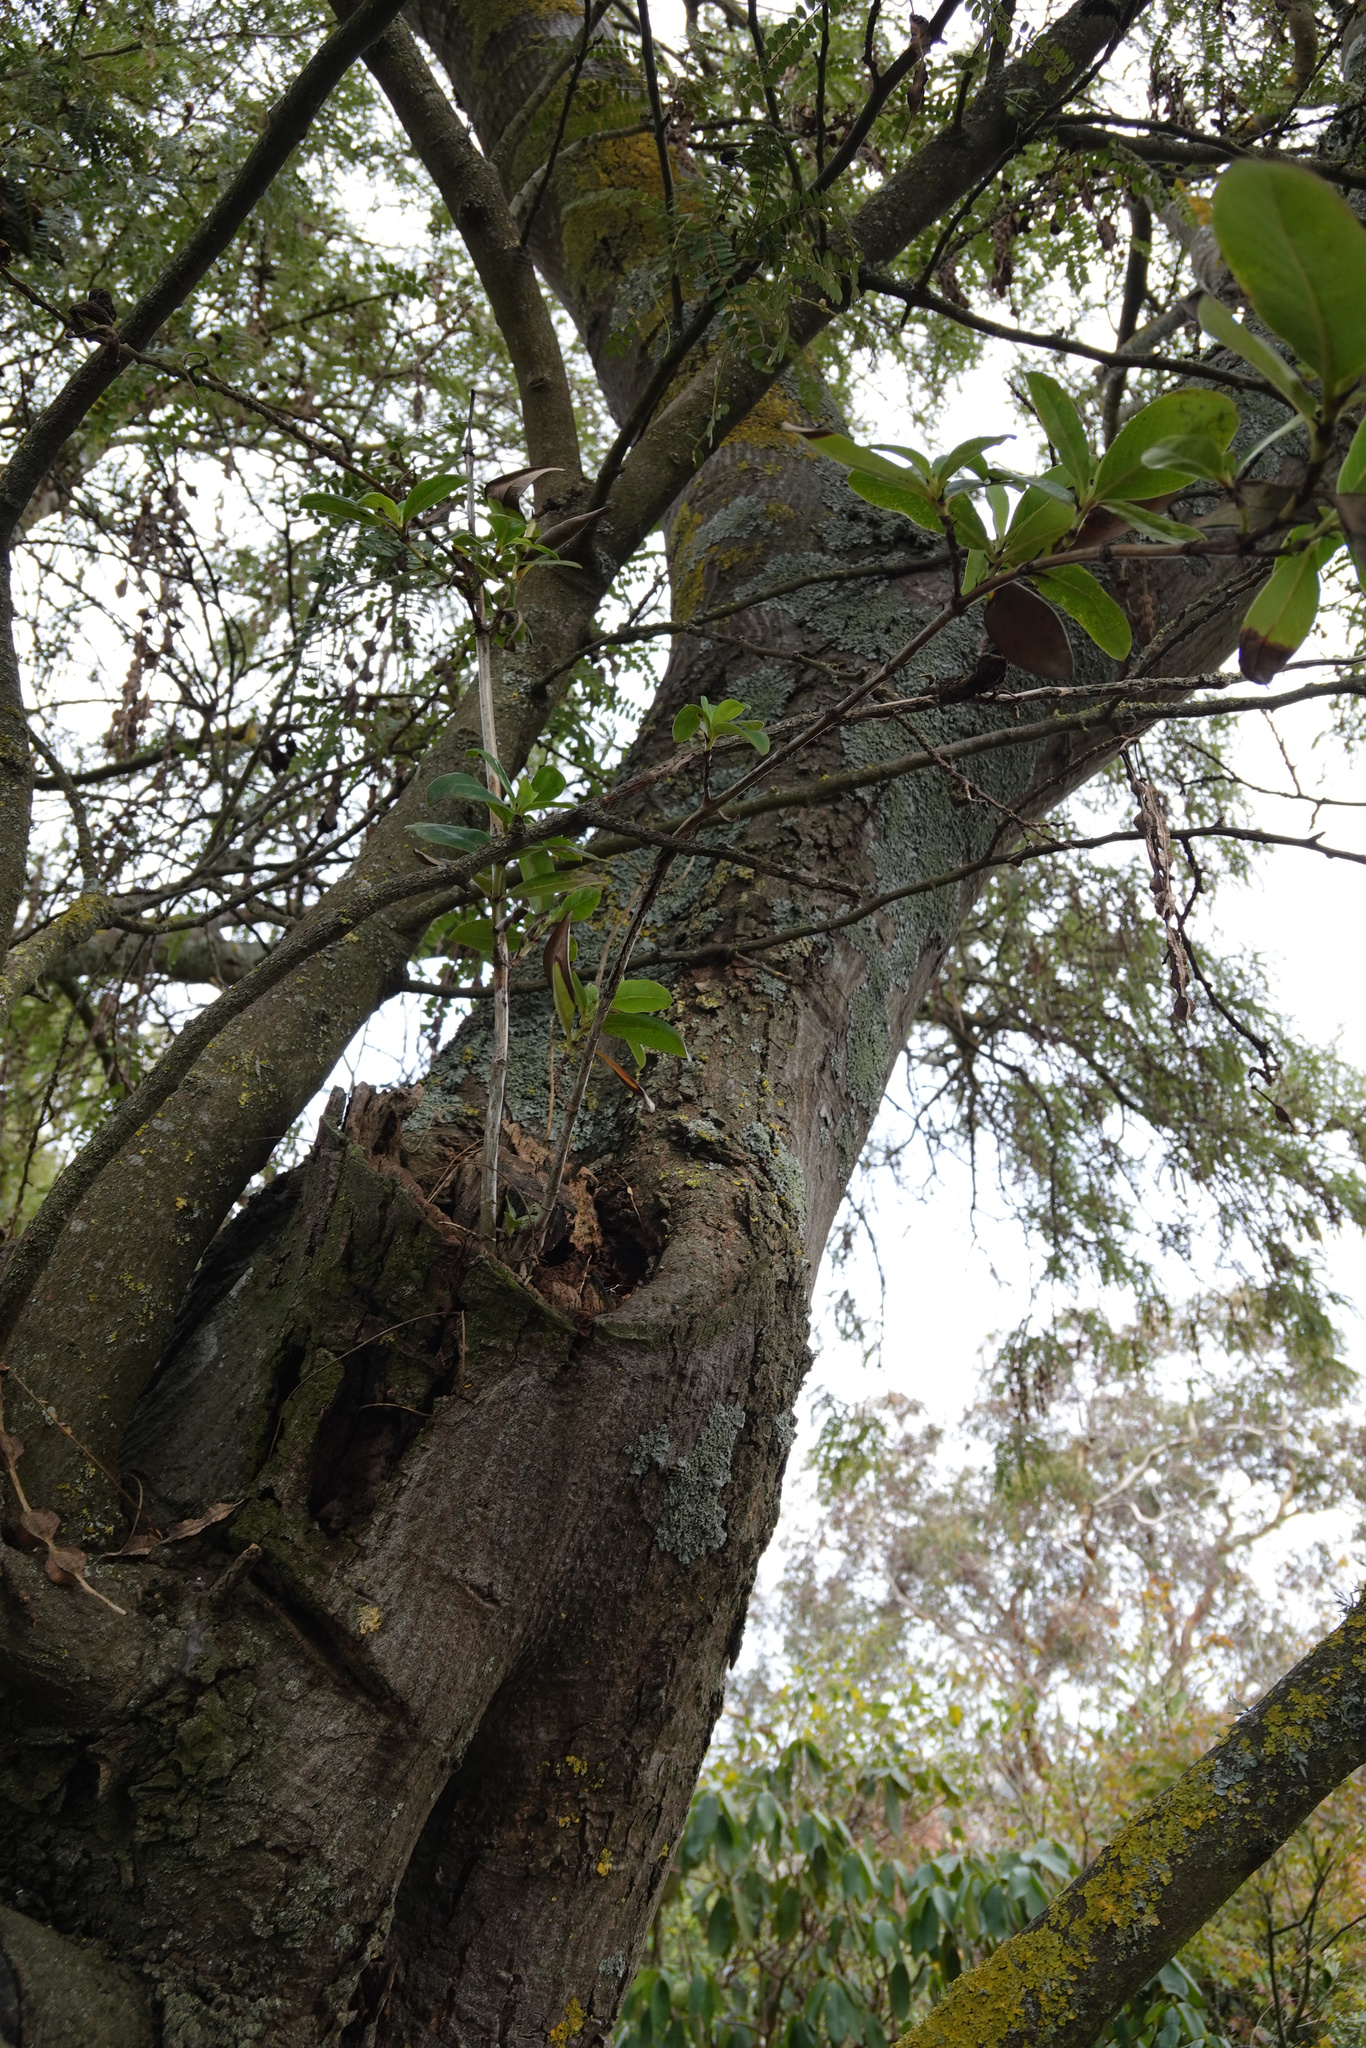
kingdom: Plantae
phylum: Tracheophyta
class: Magnoliopsida
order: Gentianales
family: Rubiaceae
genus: Coprosma
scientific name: Coprosma robusta
